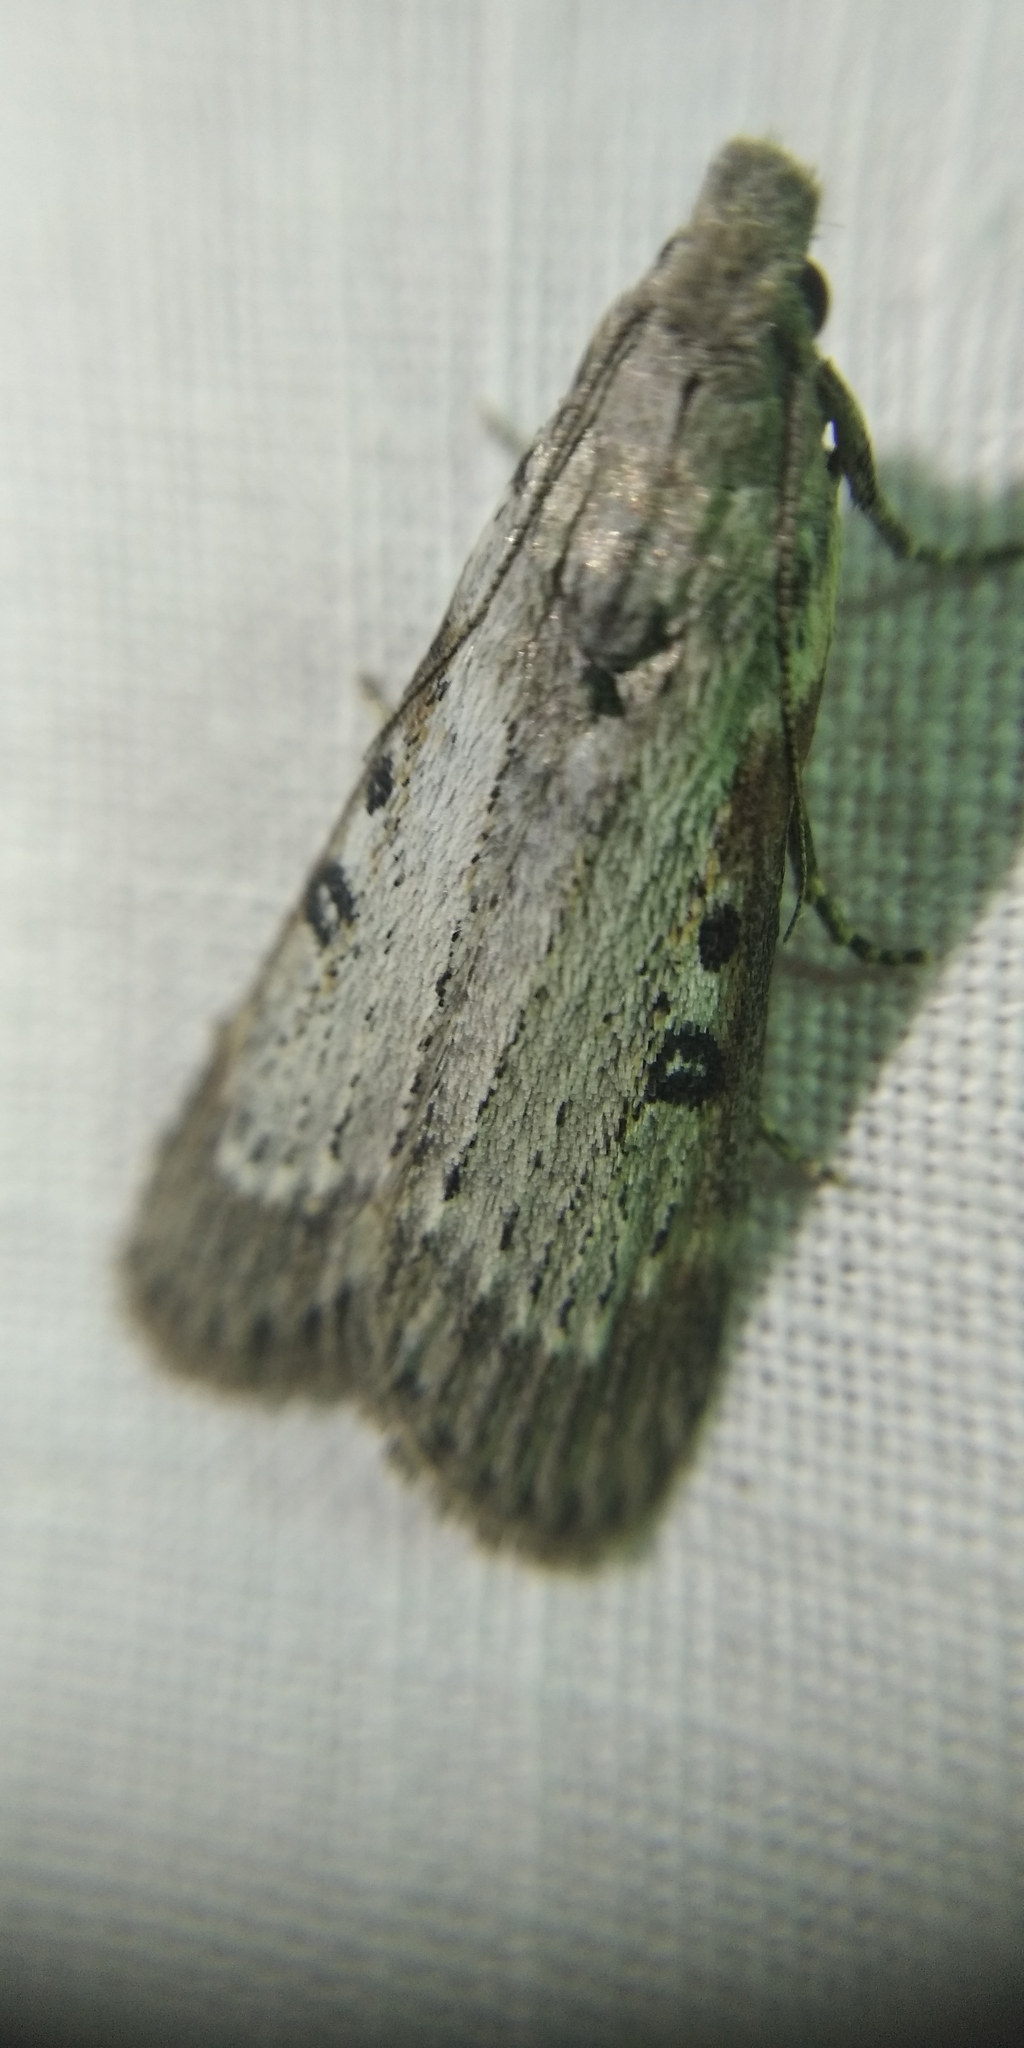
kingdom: Animalia
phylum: Arthropoda
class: Insecta
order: Lepidoptera
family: Pyralidae
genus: Lamoria
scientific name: Lamoria anella
